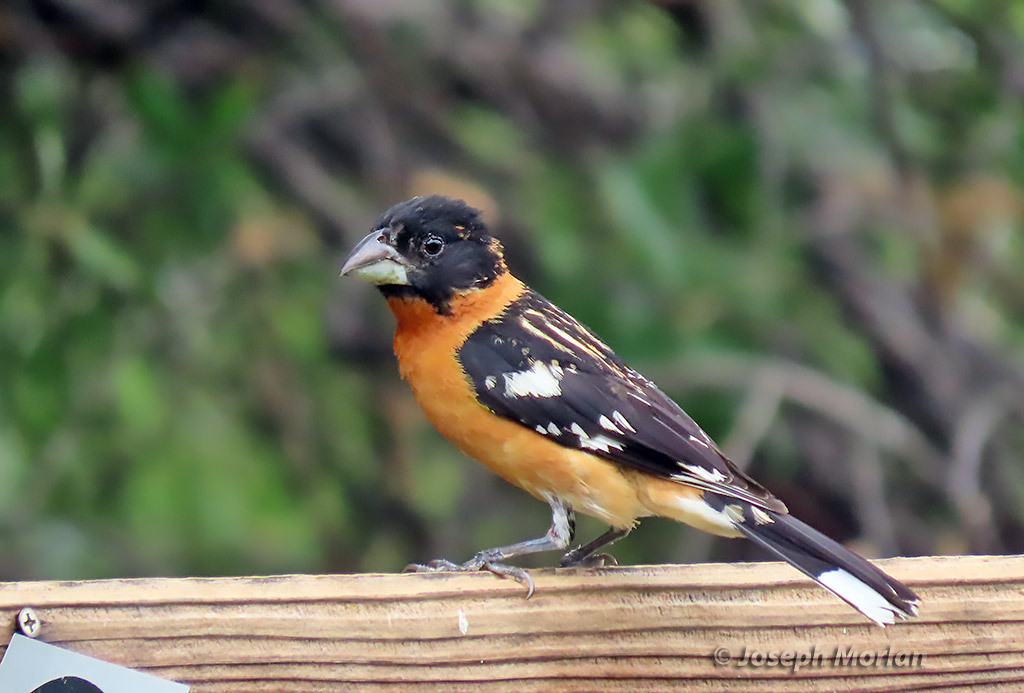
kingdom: Animalia
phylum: Chordata
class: Aves
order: Passeriformes
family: Cardinalidae
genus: Pheucticus
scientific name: Pheucticus melanocephalus
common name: Black-headed grosbeak
